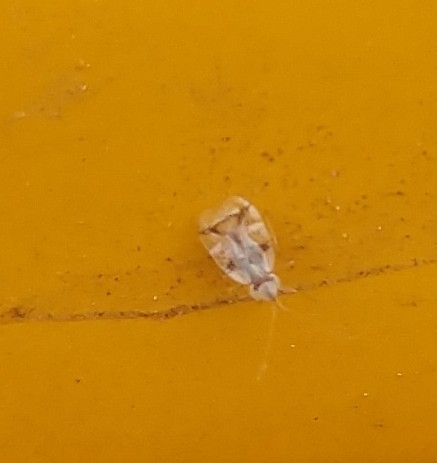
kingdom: Animalia
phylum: Arthropoda
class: Insecta
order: Hemiptera
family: Tingidae
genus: Corythucha
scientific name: Corythucha ciliata
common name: Sycamore lace bug
